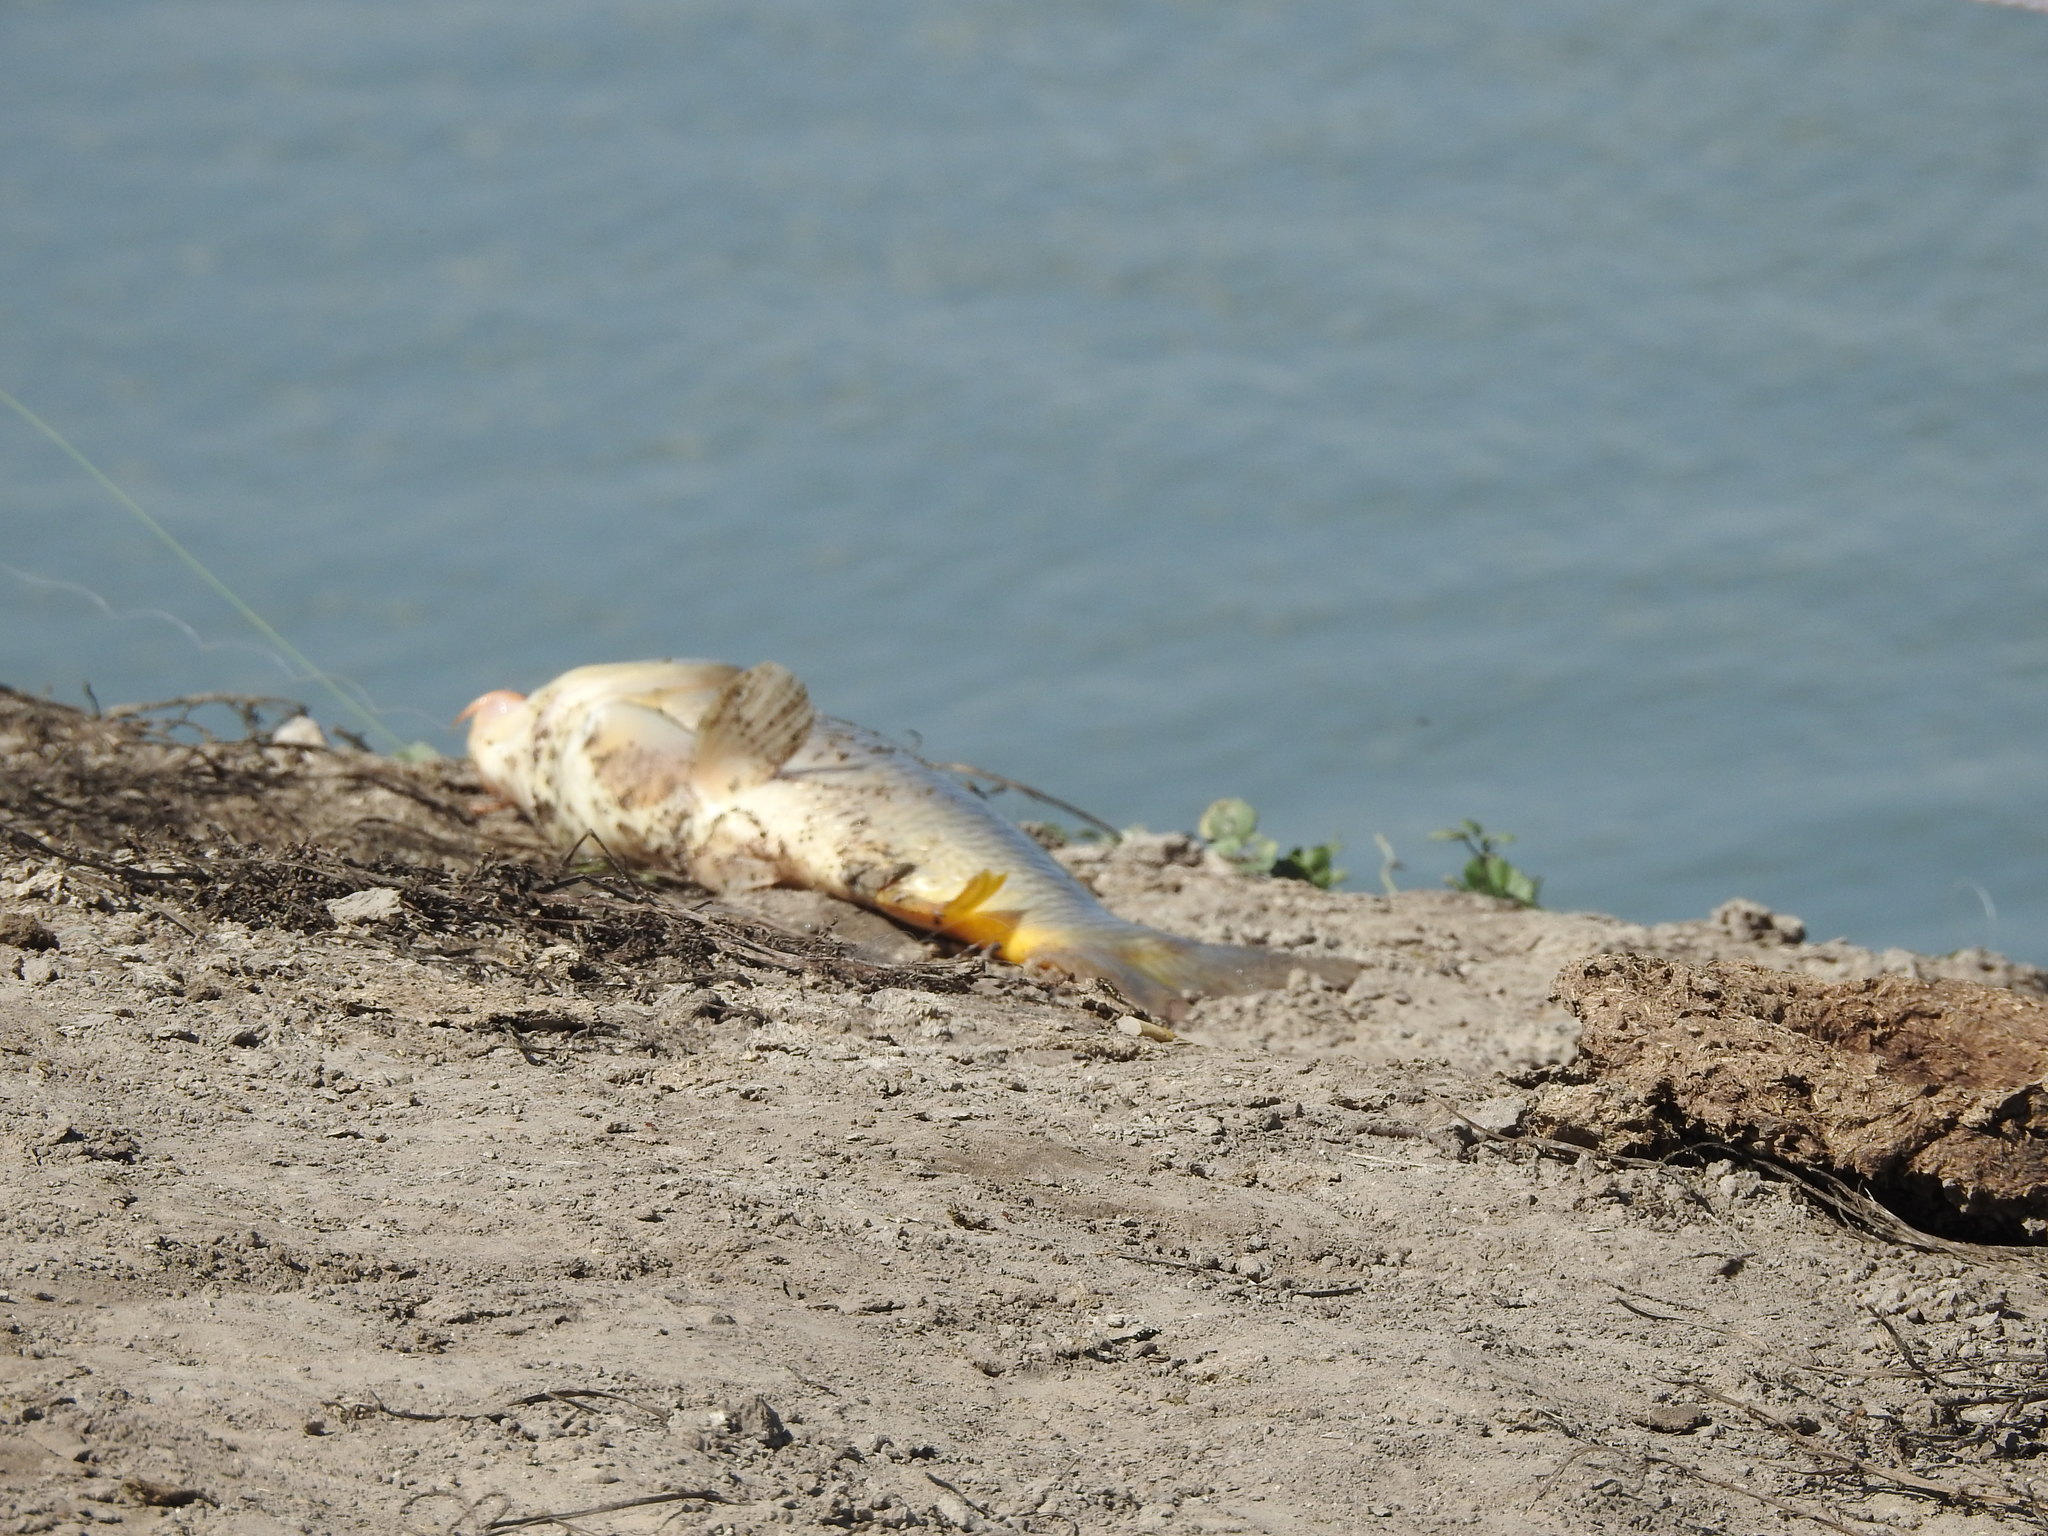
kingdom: Animalia
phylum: Chordata
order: Cypriniformes
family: Cyprinidae
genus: Cyprinus
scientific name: Cyprinus carpio
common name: Common carp
